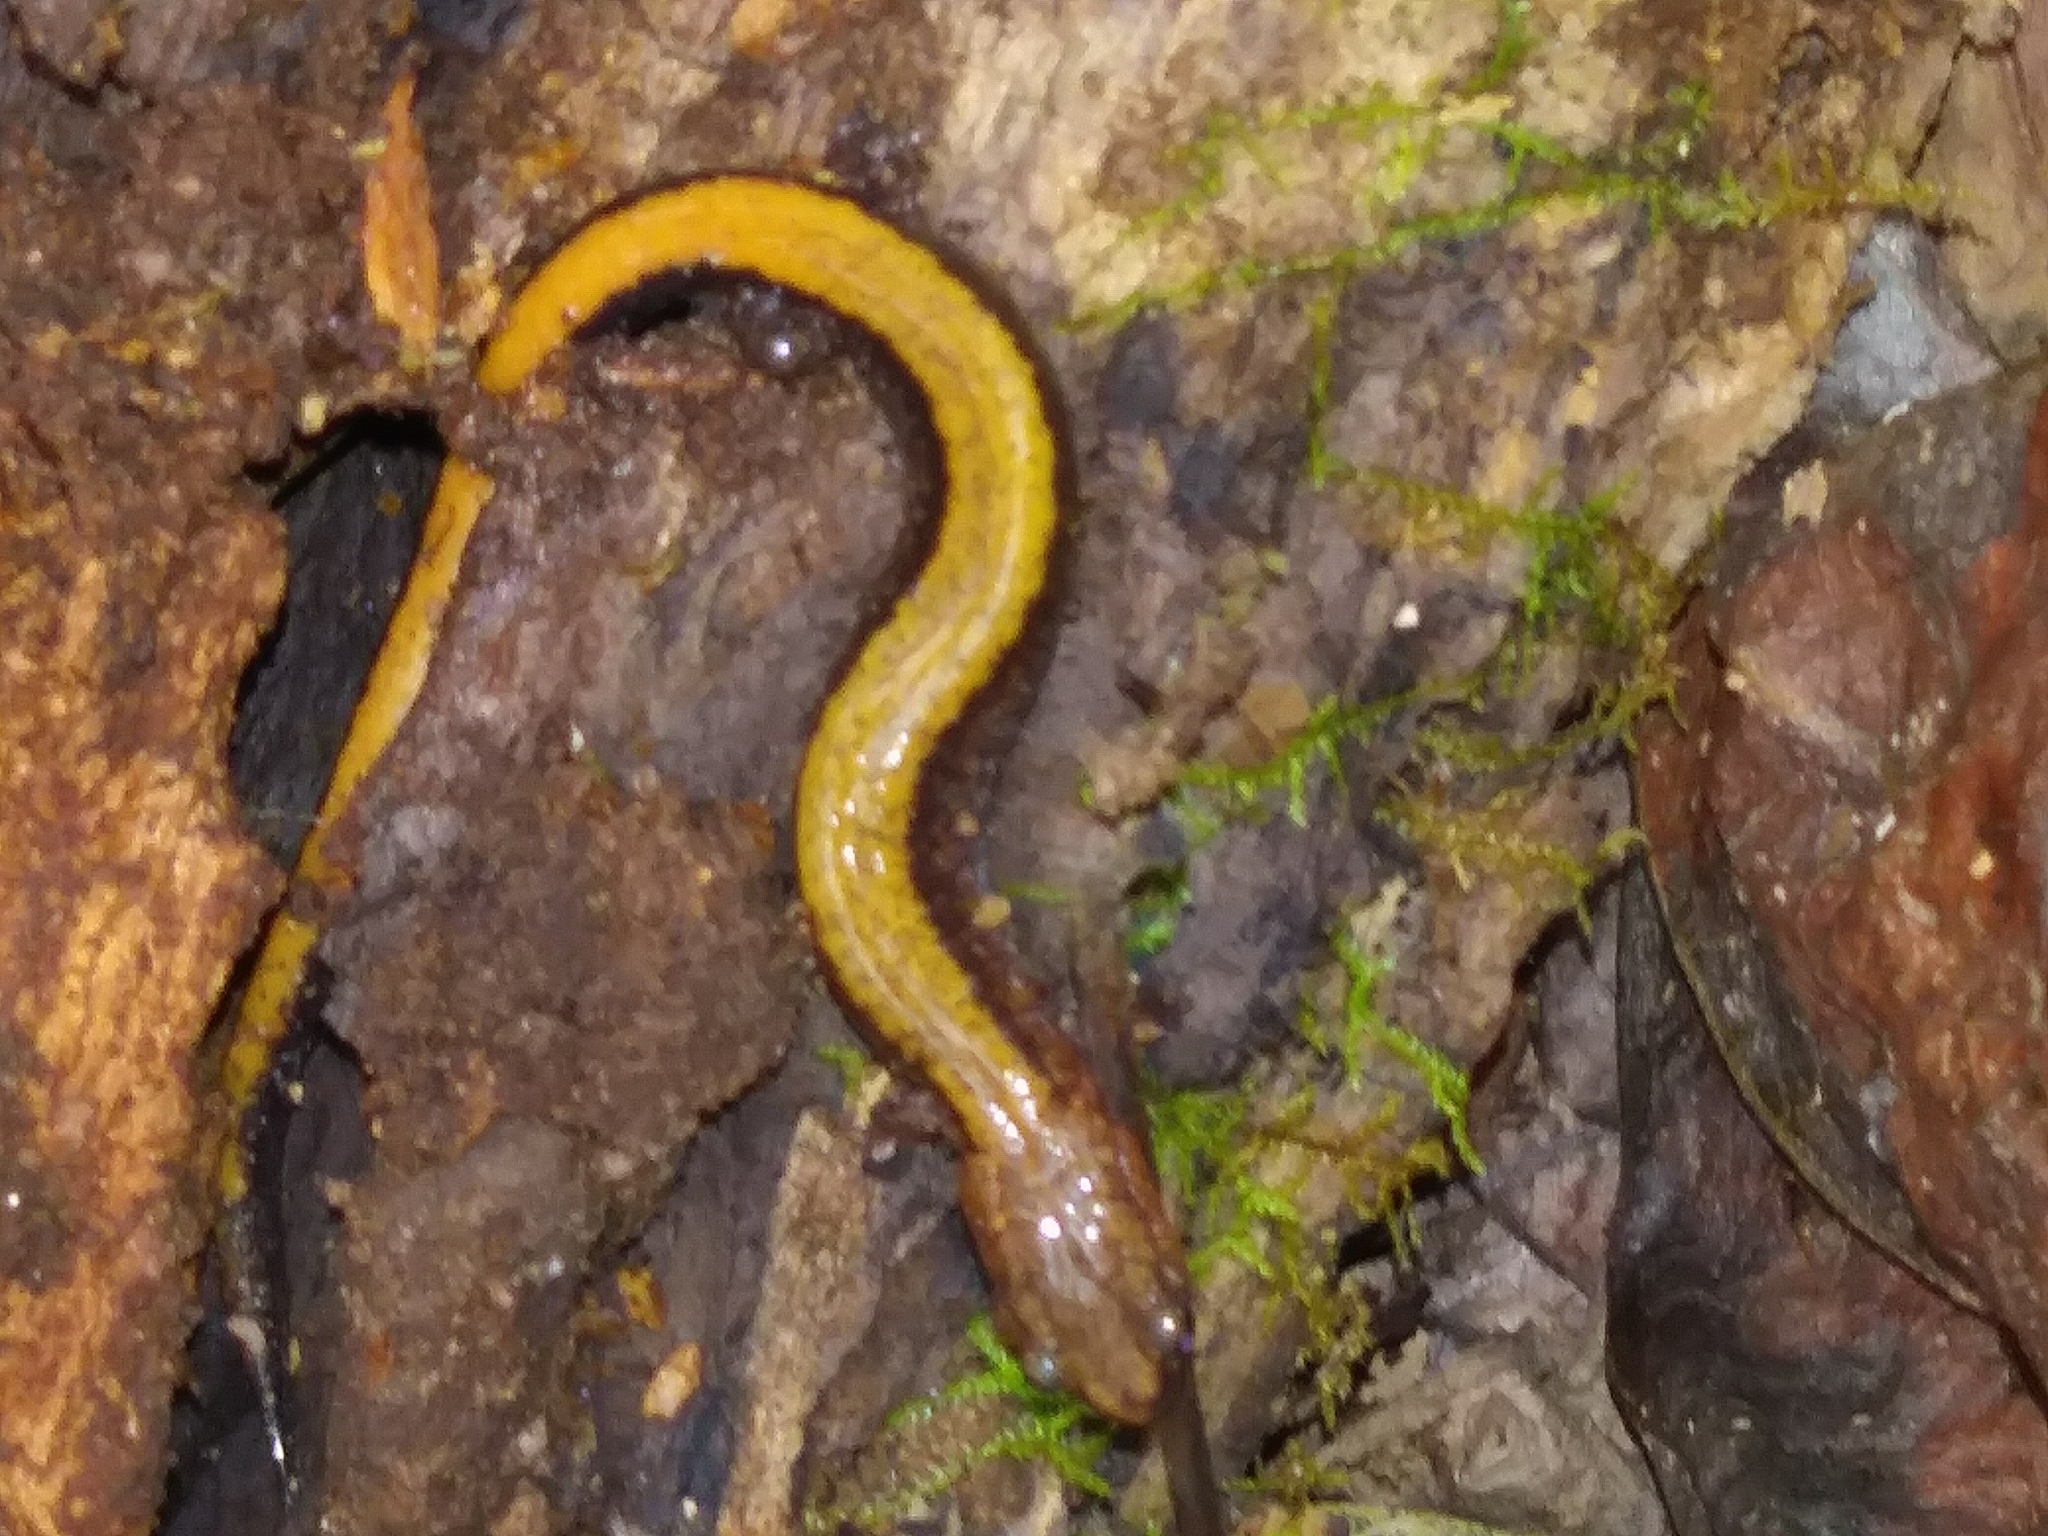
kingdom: Animalia
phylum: Chordata
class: Amphibia
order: Caudata
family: Plethodontidae
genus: Plethodon
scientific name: Plethodon cinereus
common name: Redback salamander
